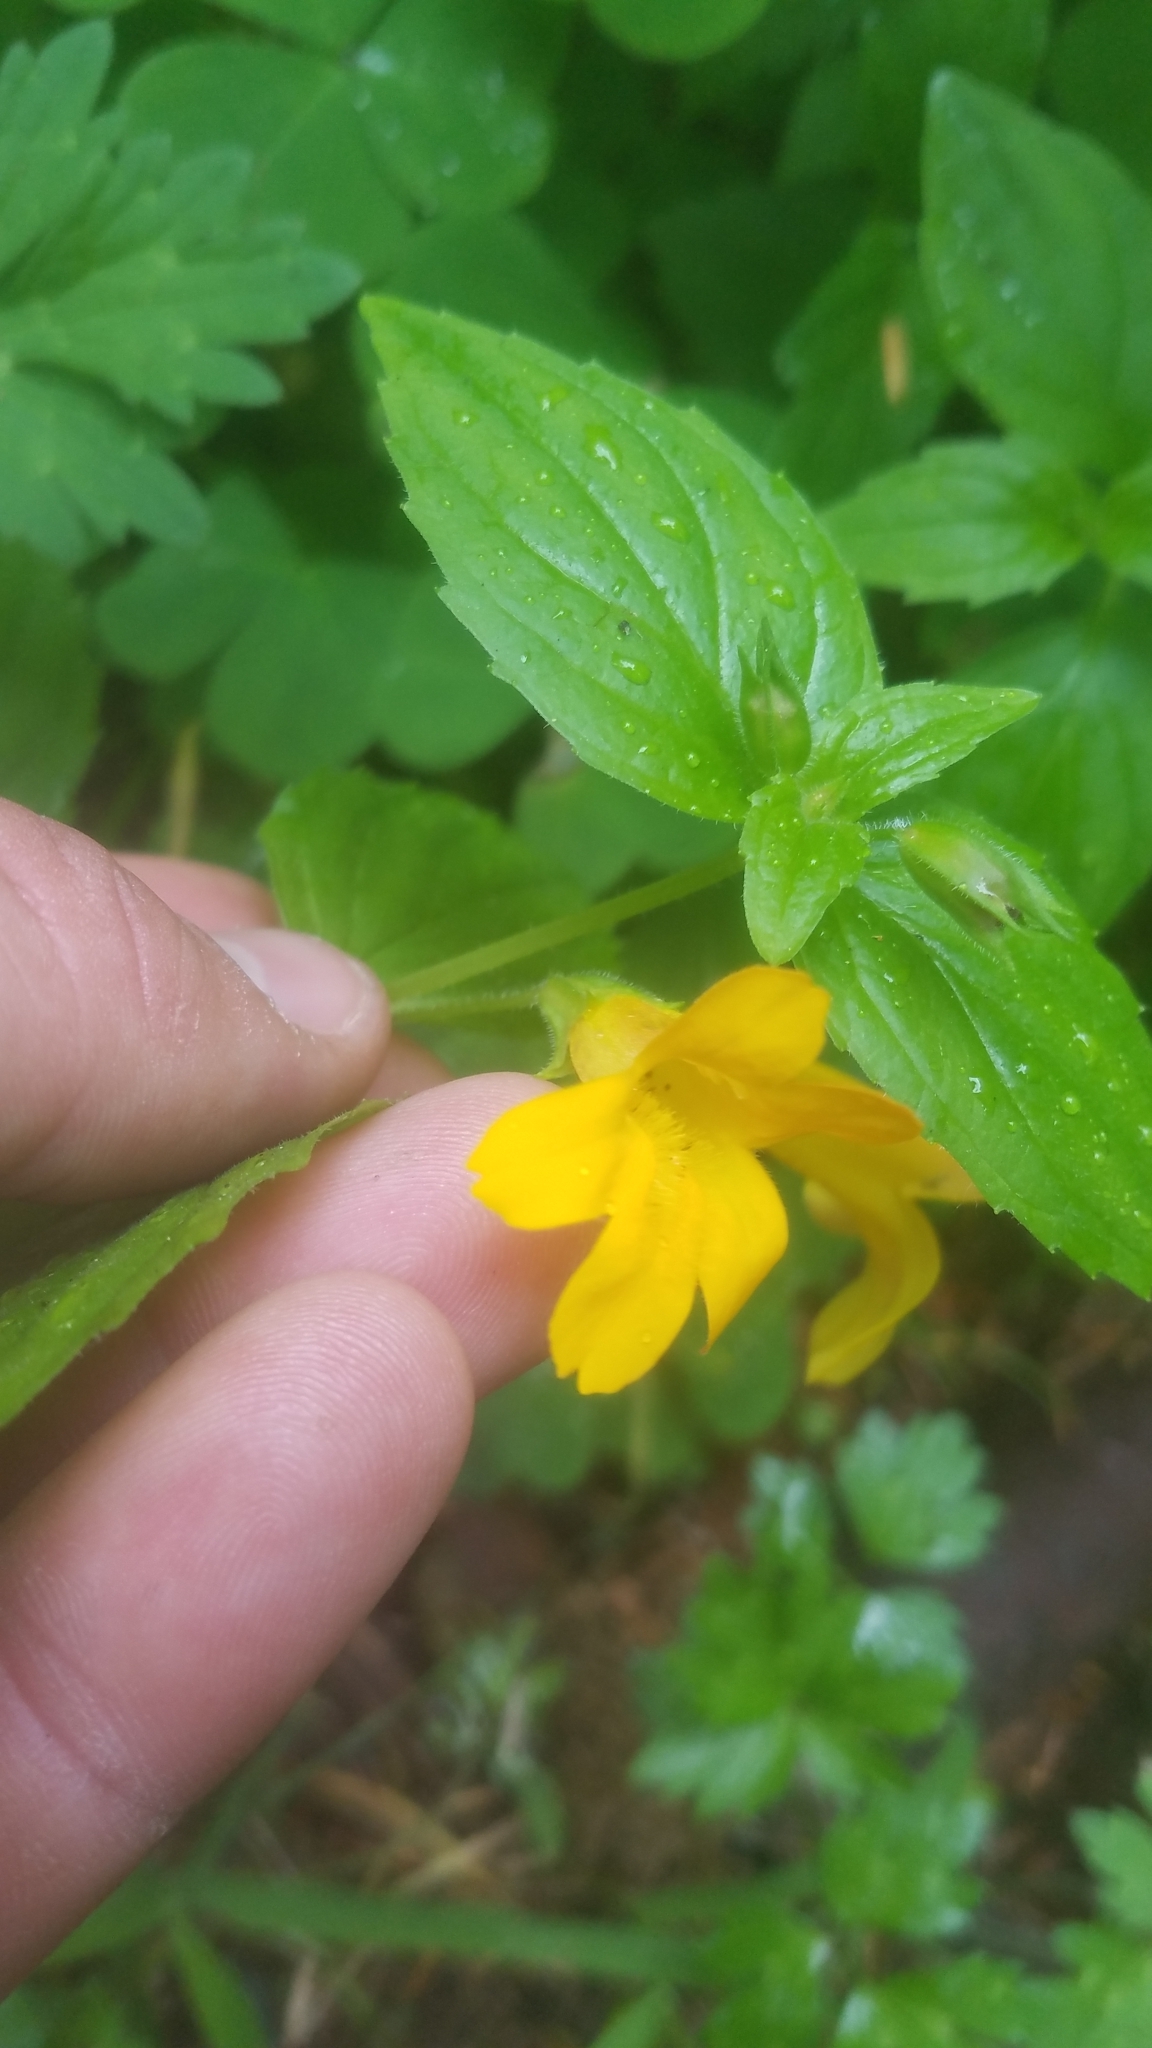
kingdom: Plantae
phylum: Tracheophyta
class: Magnoliopsida
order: Lamiales
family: Phrymaceae
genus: Erythranthe
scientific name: Erythranthe dentata
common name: Coastal monkeyflower
